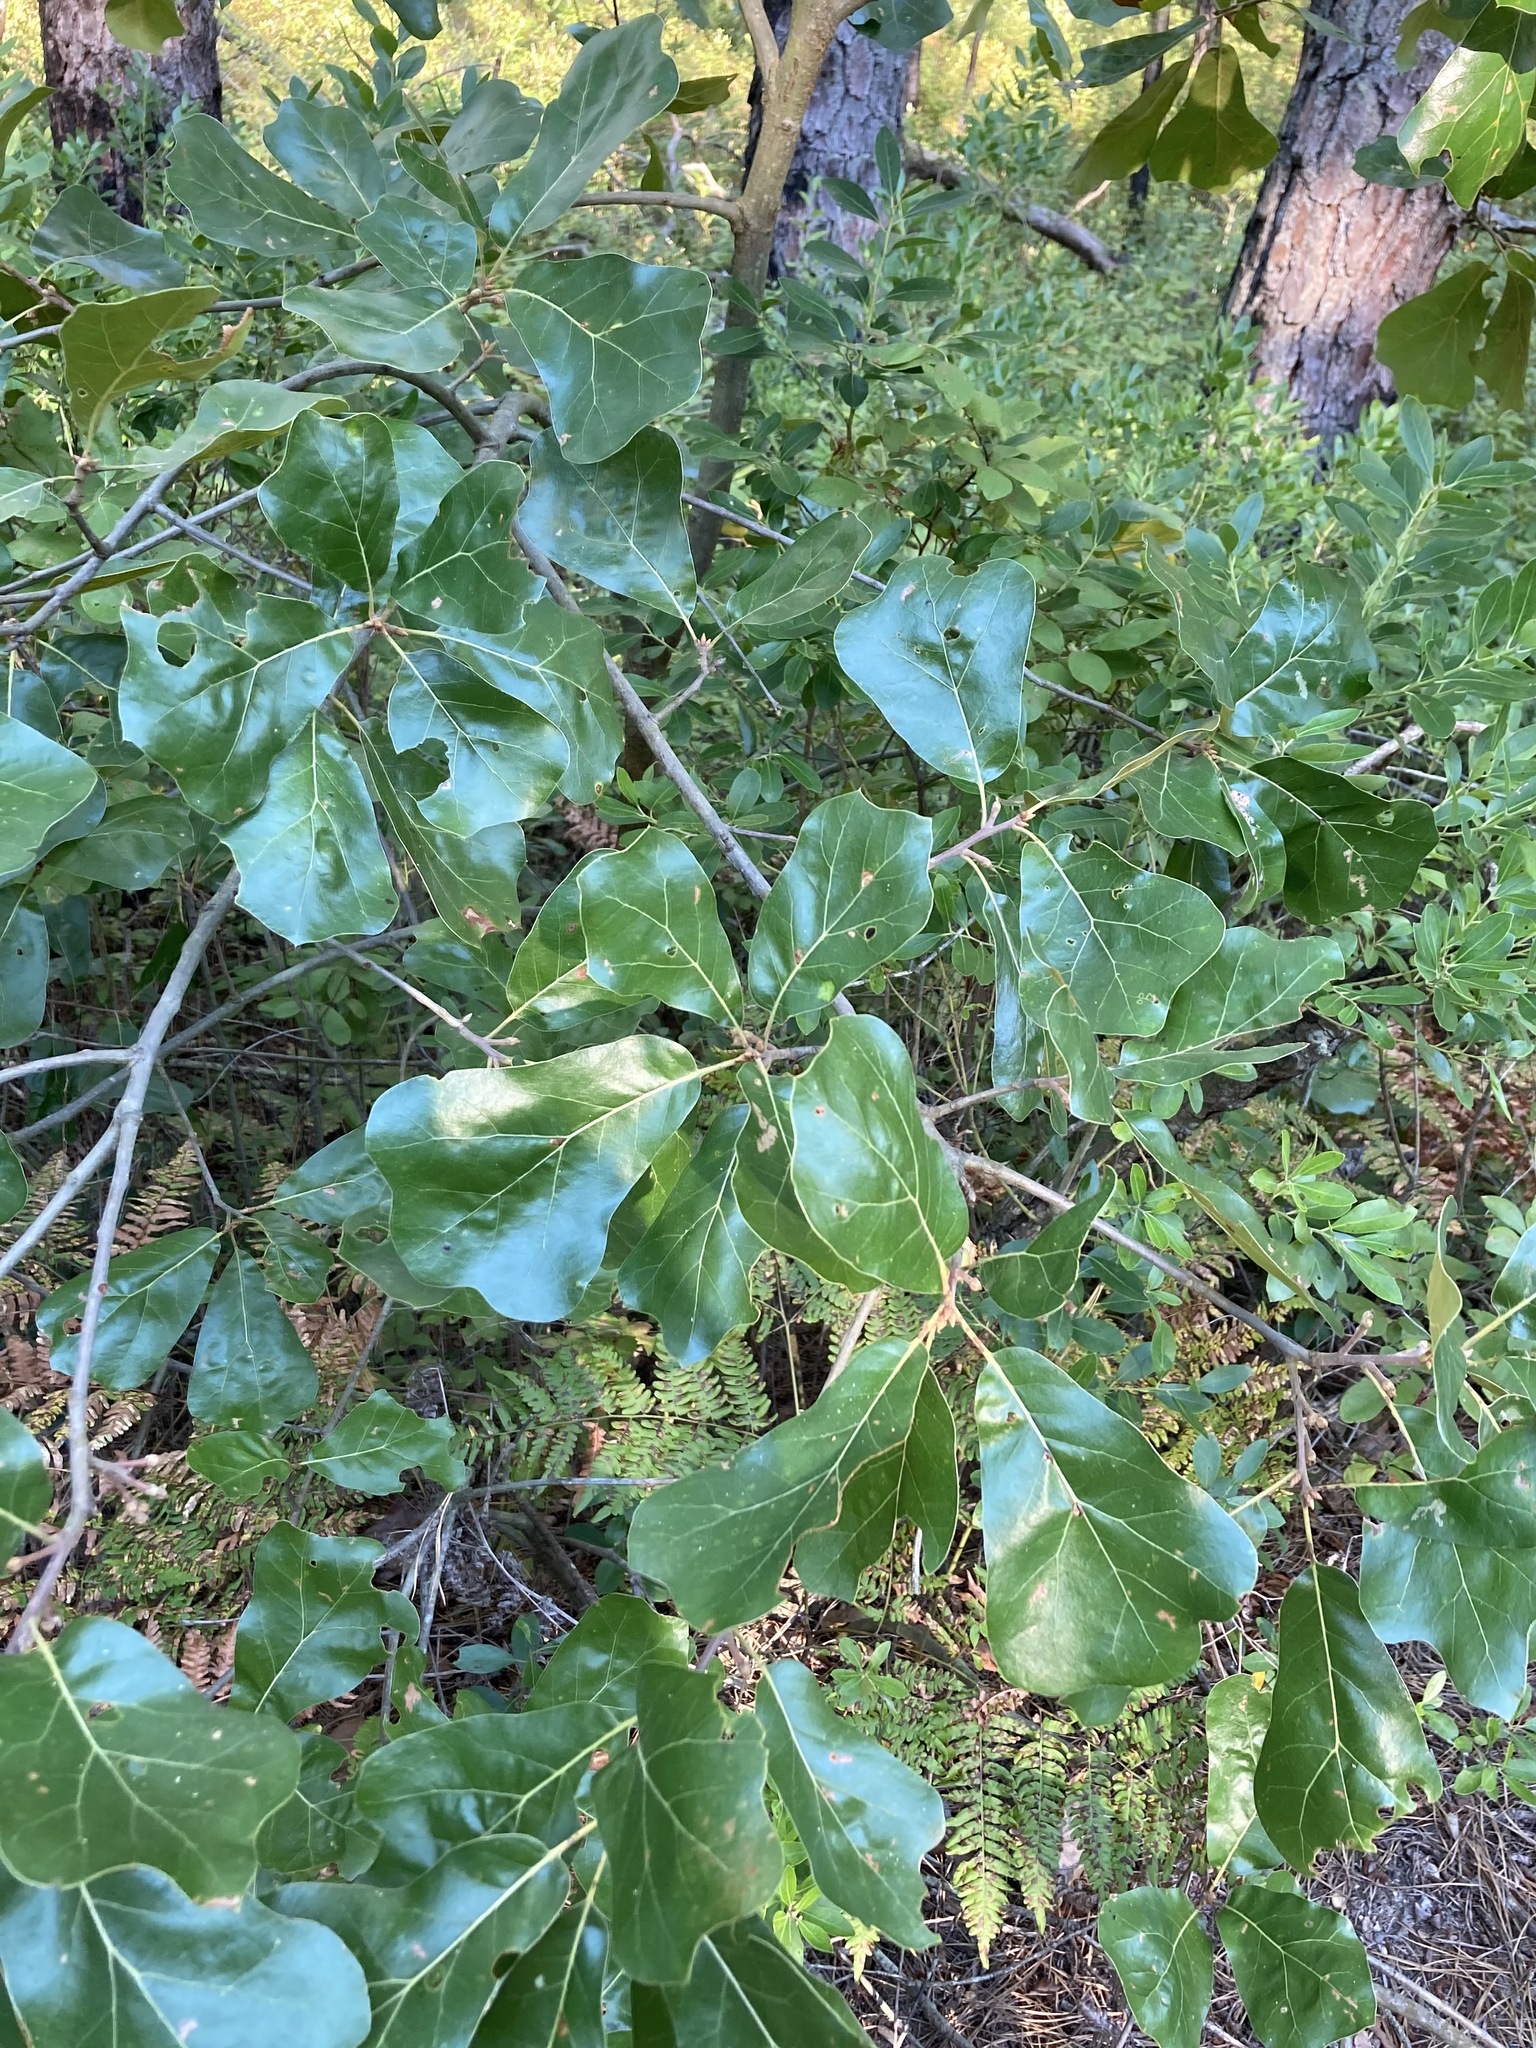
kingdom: Plantae
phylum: Tracheophyta
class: Magnoliopsida
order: Fagales
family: Fagaceae
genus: Quercus
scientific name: Quercus marilandica
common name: Blackjack oak
